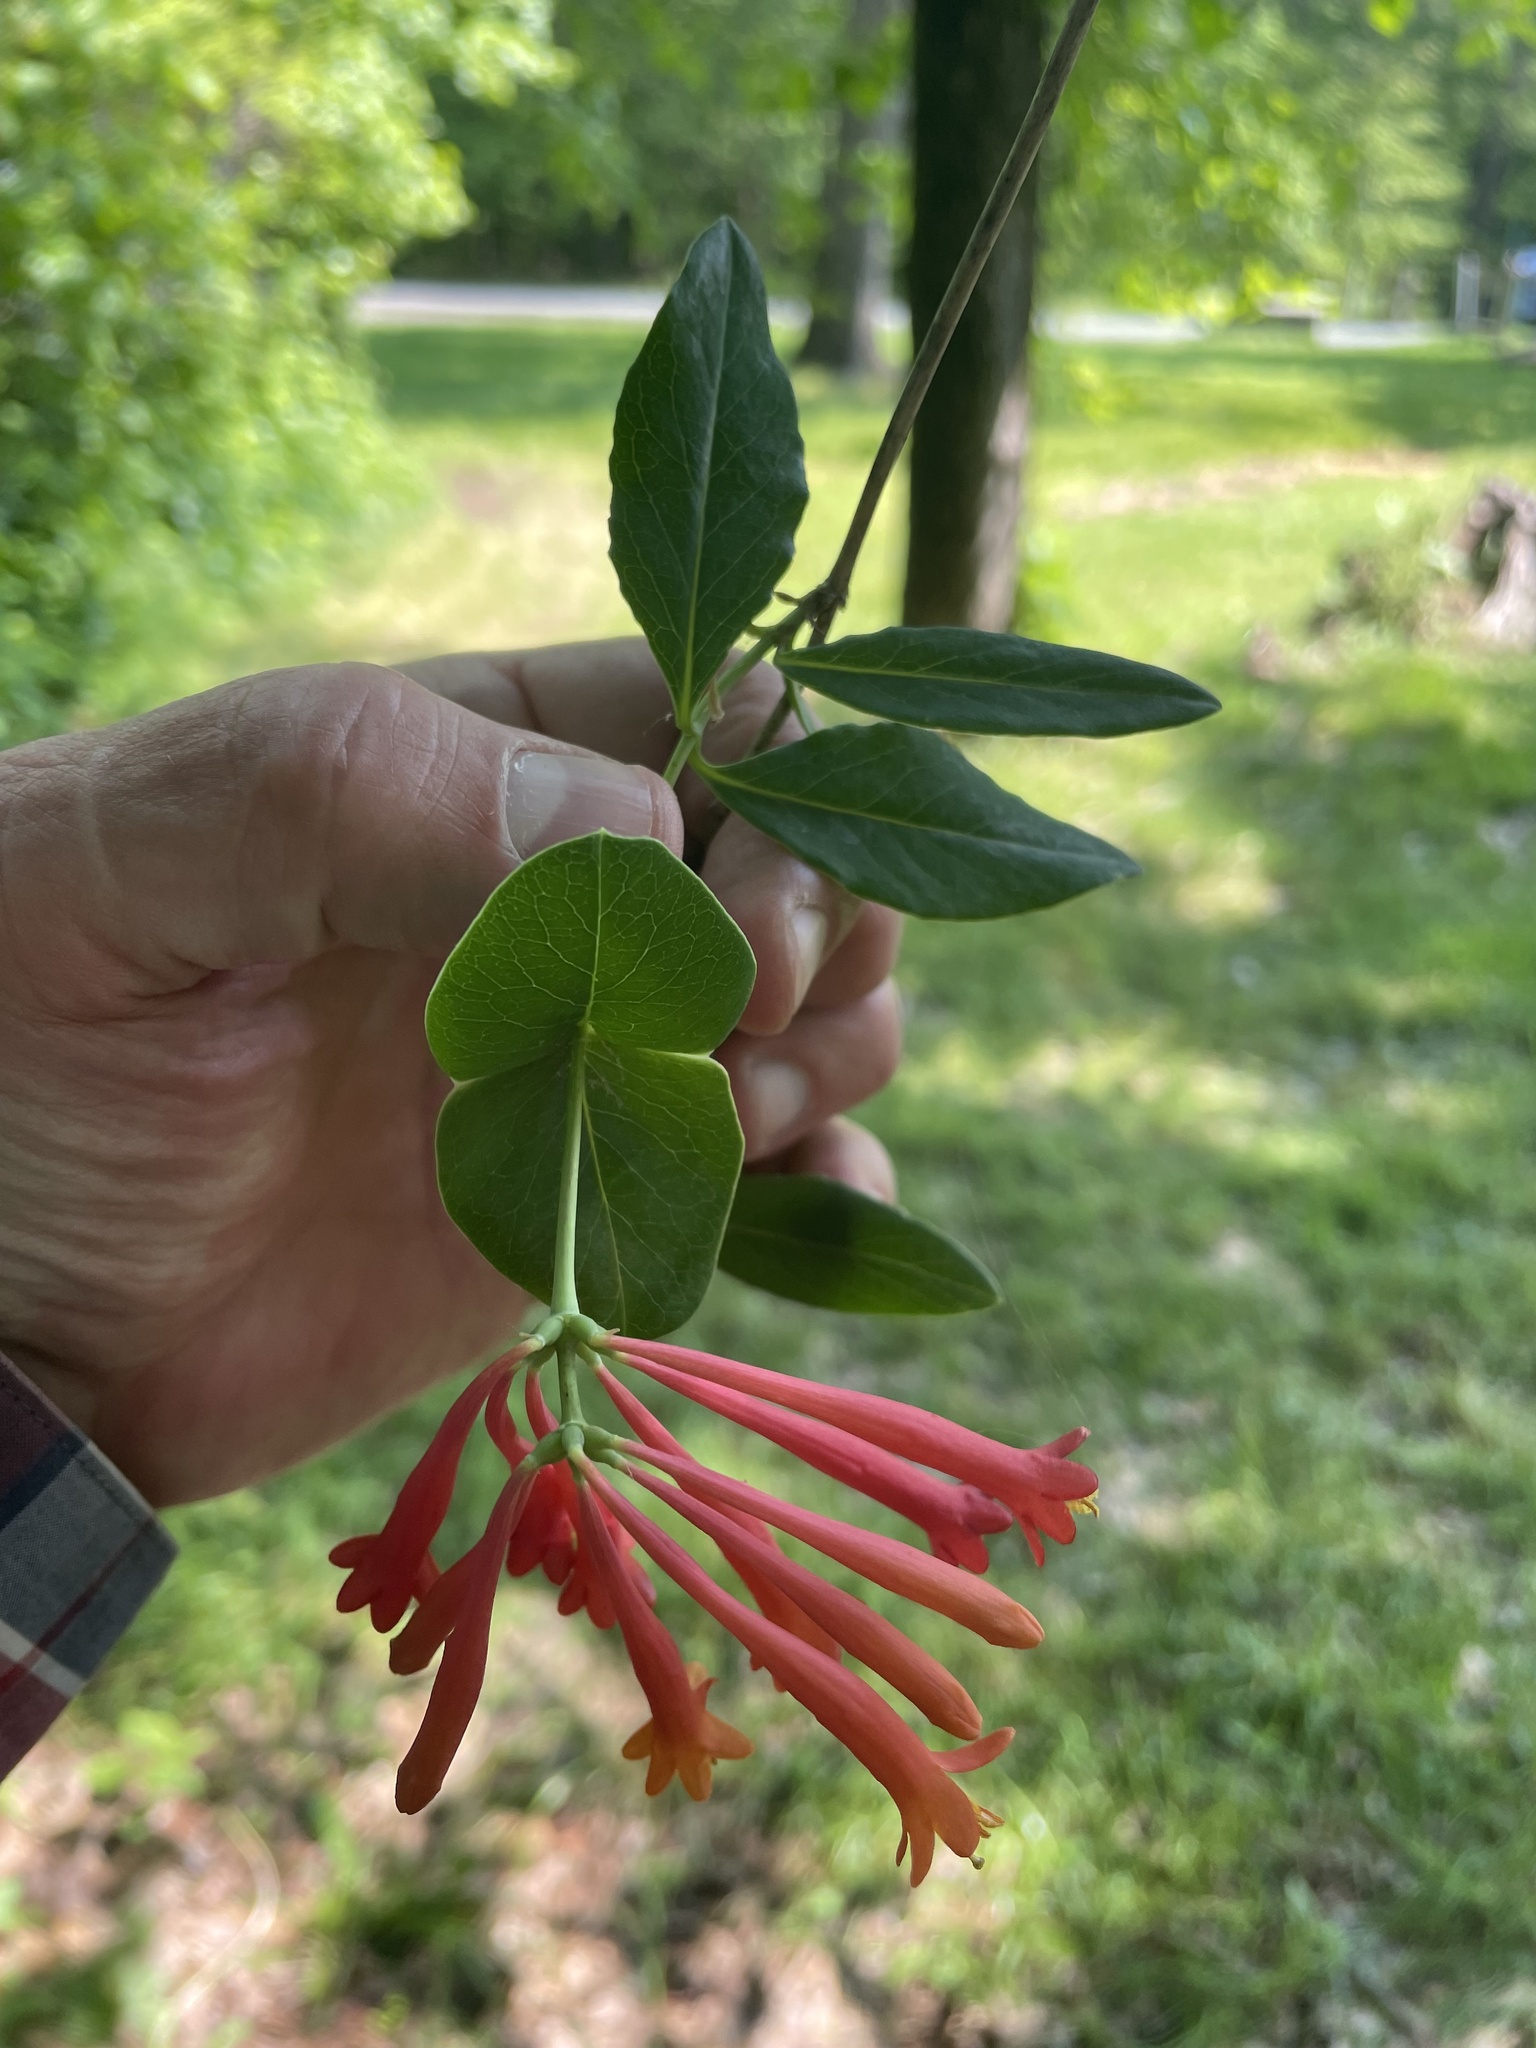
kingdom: Plantae
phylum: Tracheophyta
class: Magnoliopsida
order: Dipsacales
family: Caprifoliaceae
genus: Lonicera
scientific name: Lonicera sempervirens
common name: Coral honeysuckle
